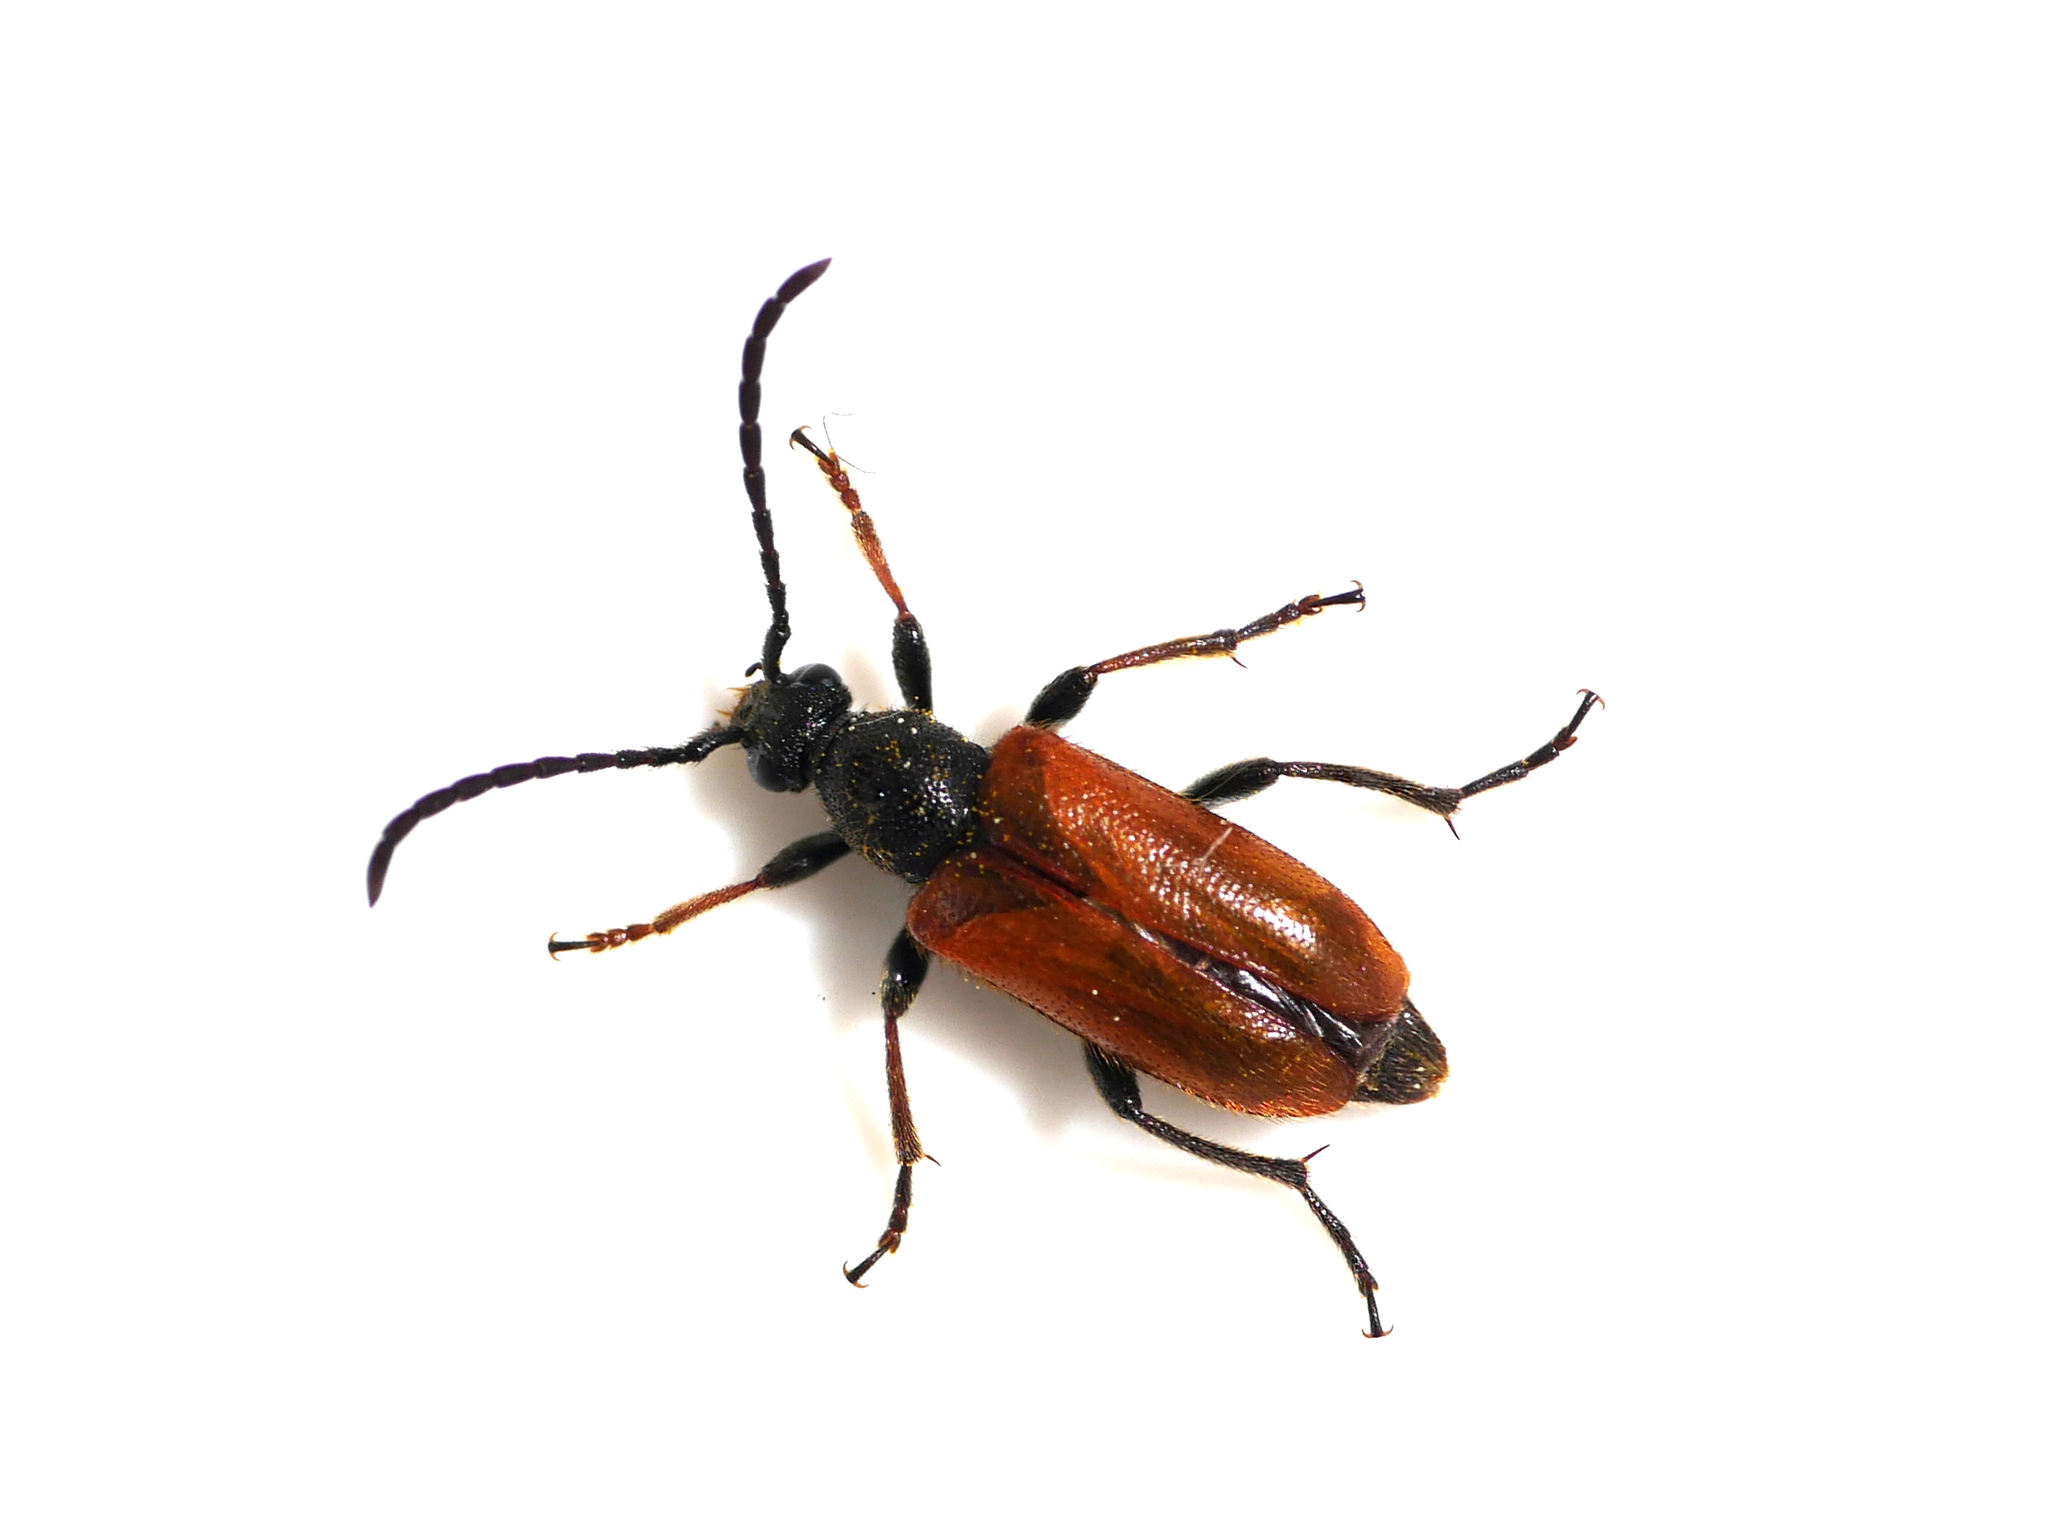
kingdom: Animalia
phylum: Arthropoda
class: Insecta
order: Coleoptera
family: Cerambycidae
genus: Pseudovadonia
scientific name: Pseudovadonia livida
